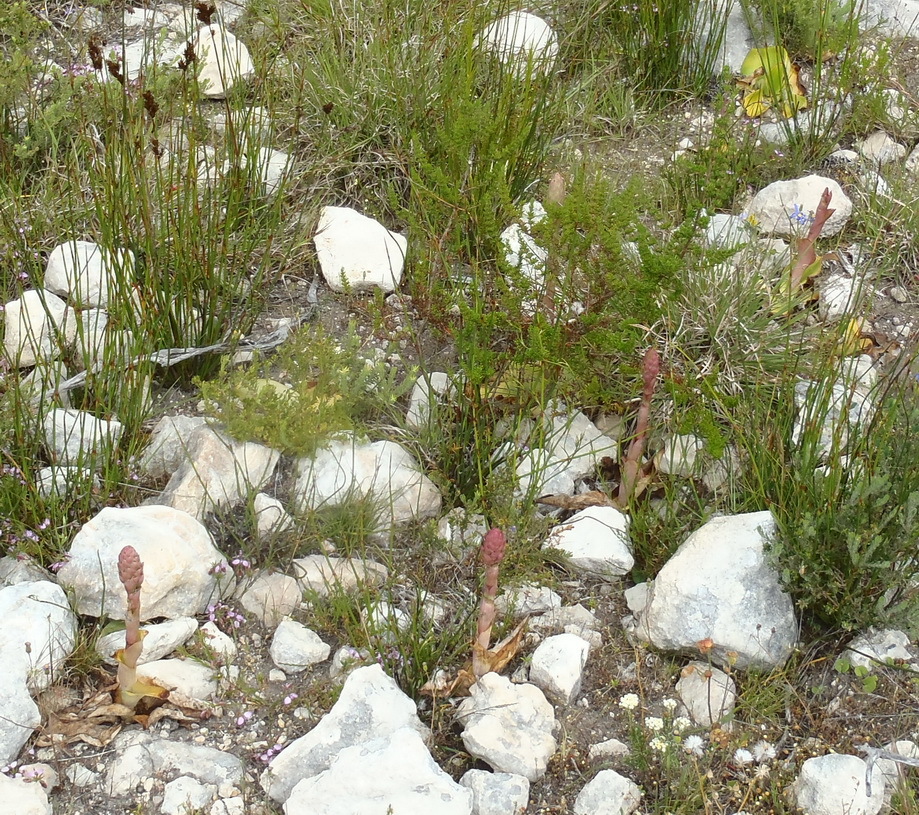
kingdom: Plantae
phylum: Tracheophyta
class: Liliopsida
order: Asparagales
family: Orchidaceae
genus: Satyrium
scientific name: Satyrium carneum
